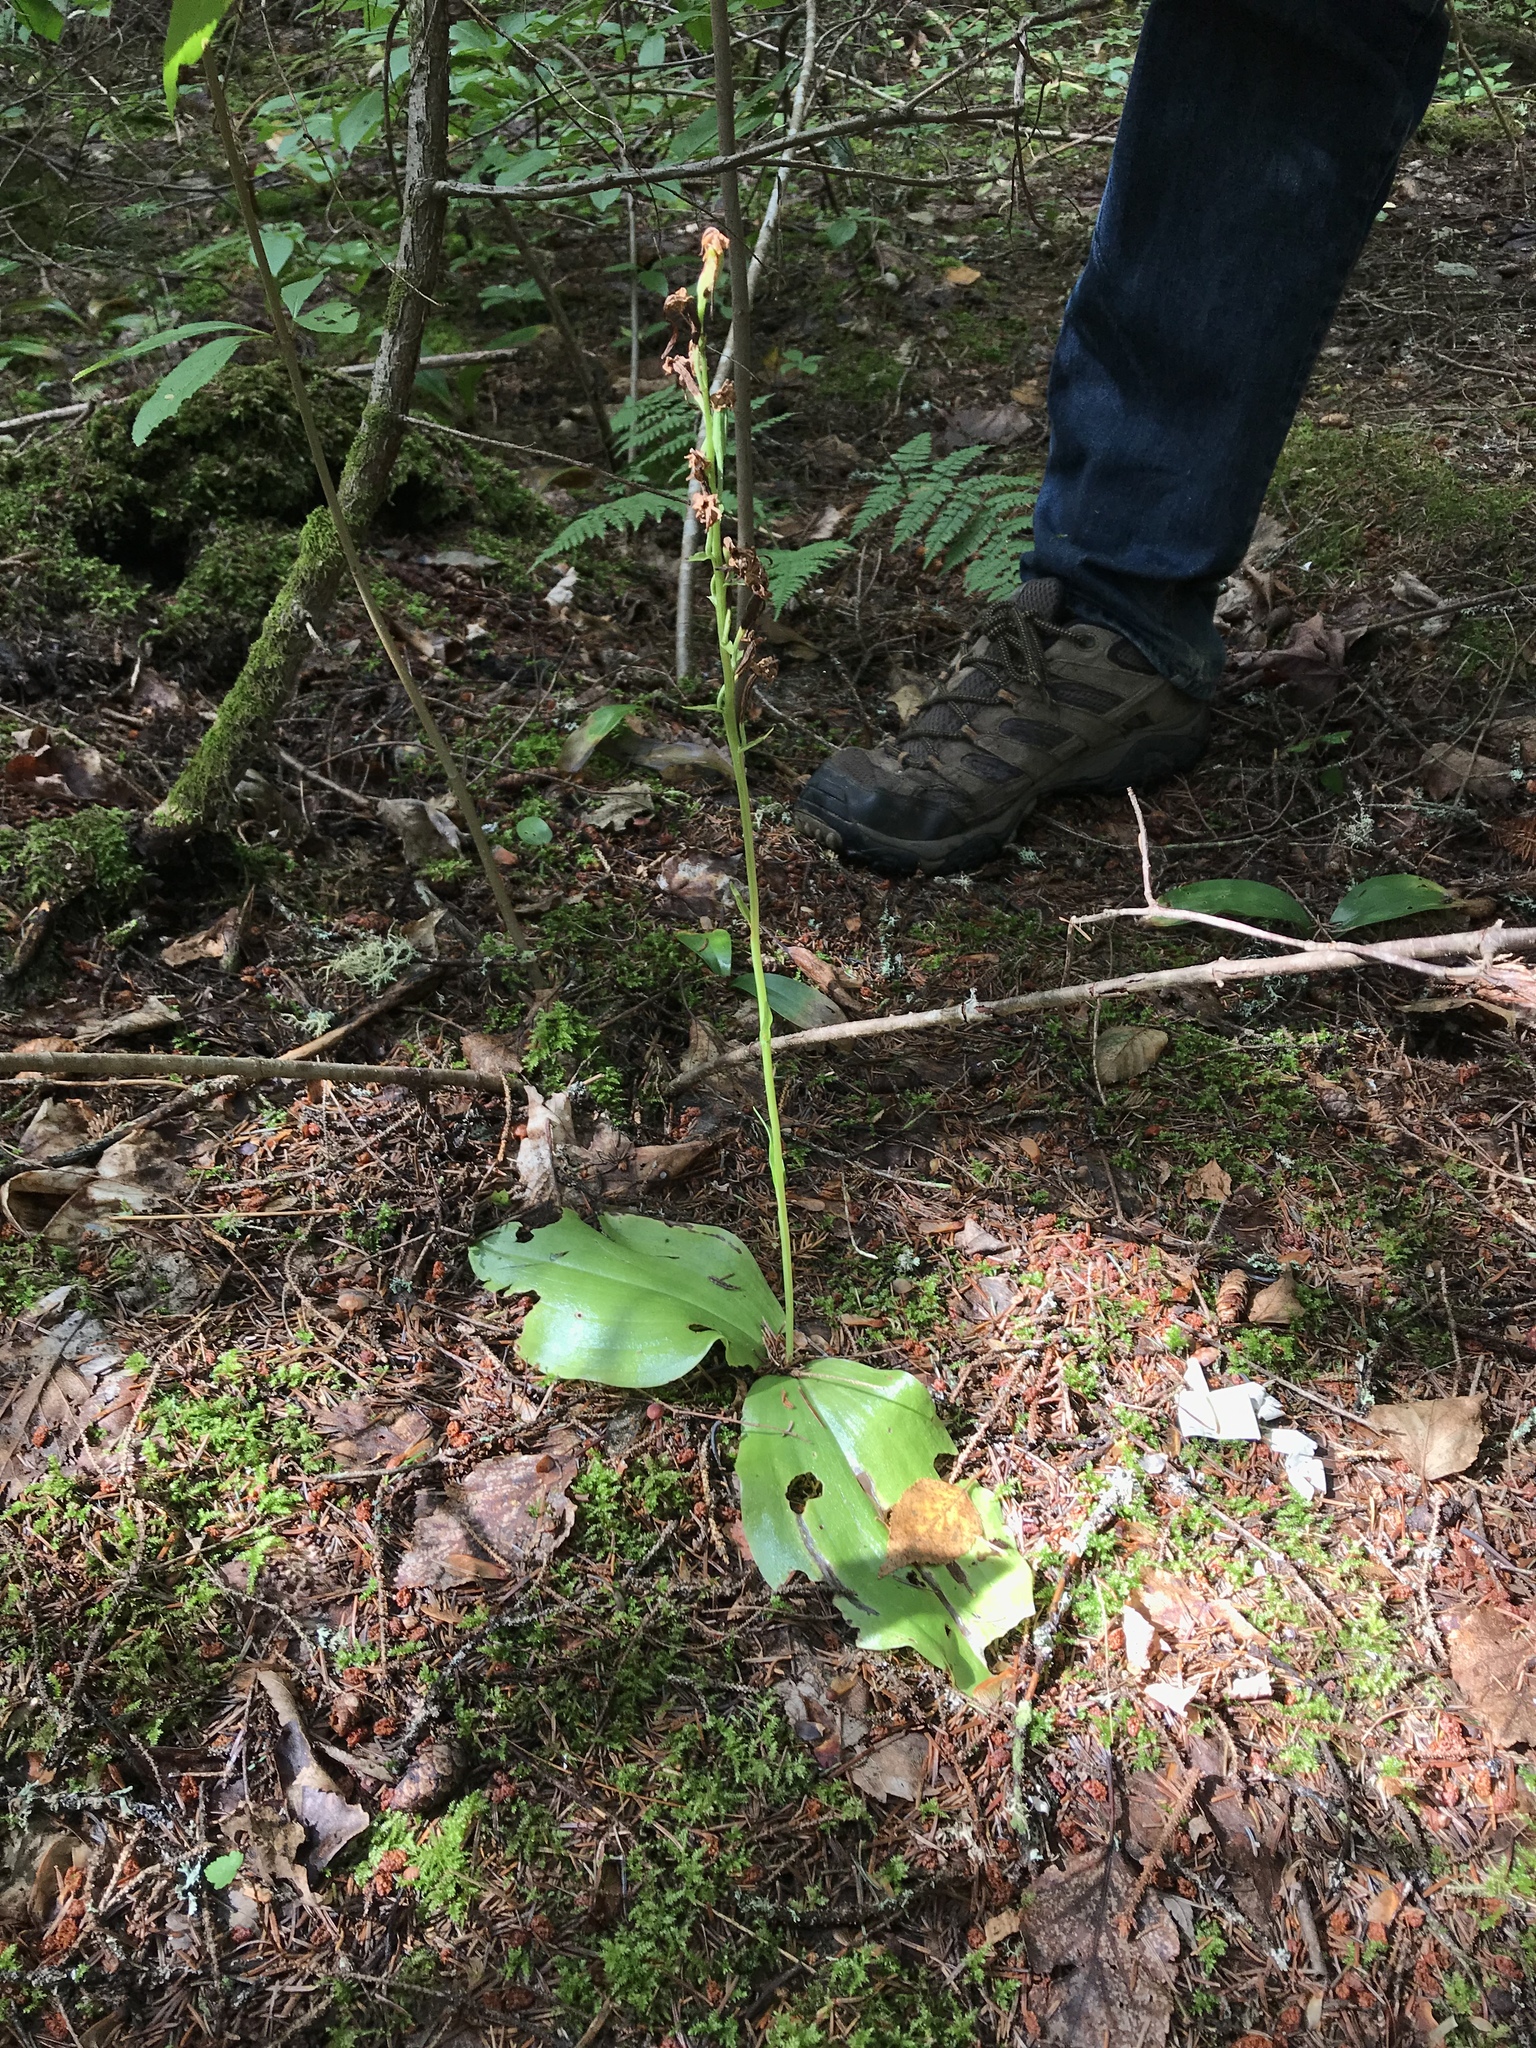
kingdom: Plantae
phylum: Tracheophyta
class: Liliopsida
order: Asparagales
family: Orchidaceae
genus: Platanthera
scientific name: Platanthera orbiculata
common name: Large round-leaved orchid
